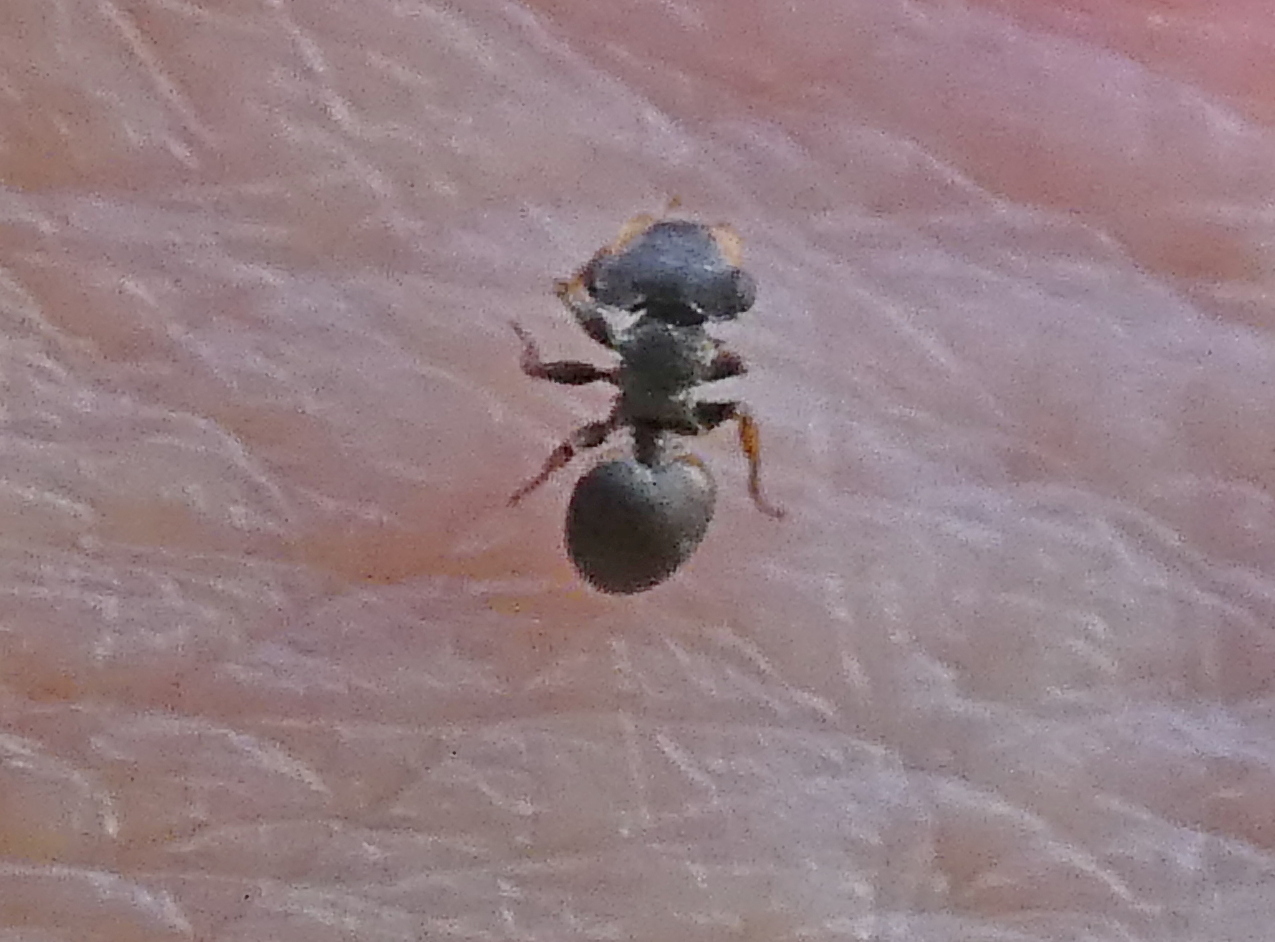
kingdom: Animalia
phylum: Arthropoda
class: Insecta
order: Hymenoptera
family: Formicidae
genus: Cephalotes
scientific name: Cephalotes
